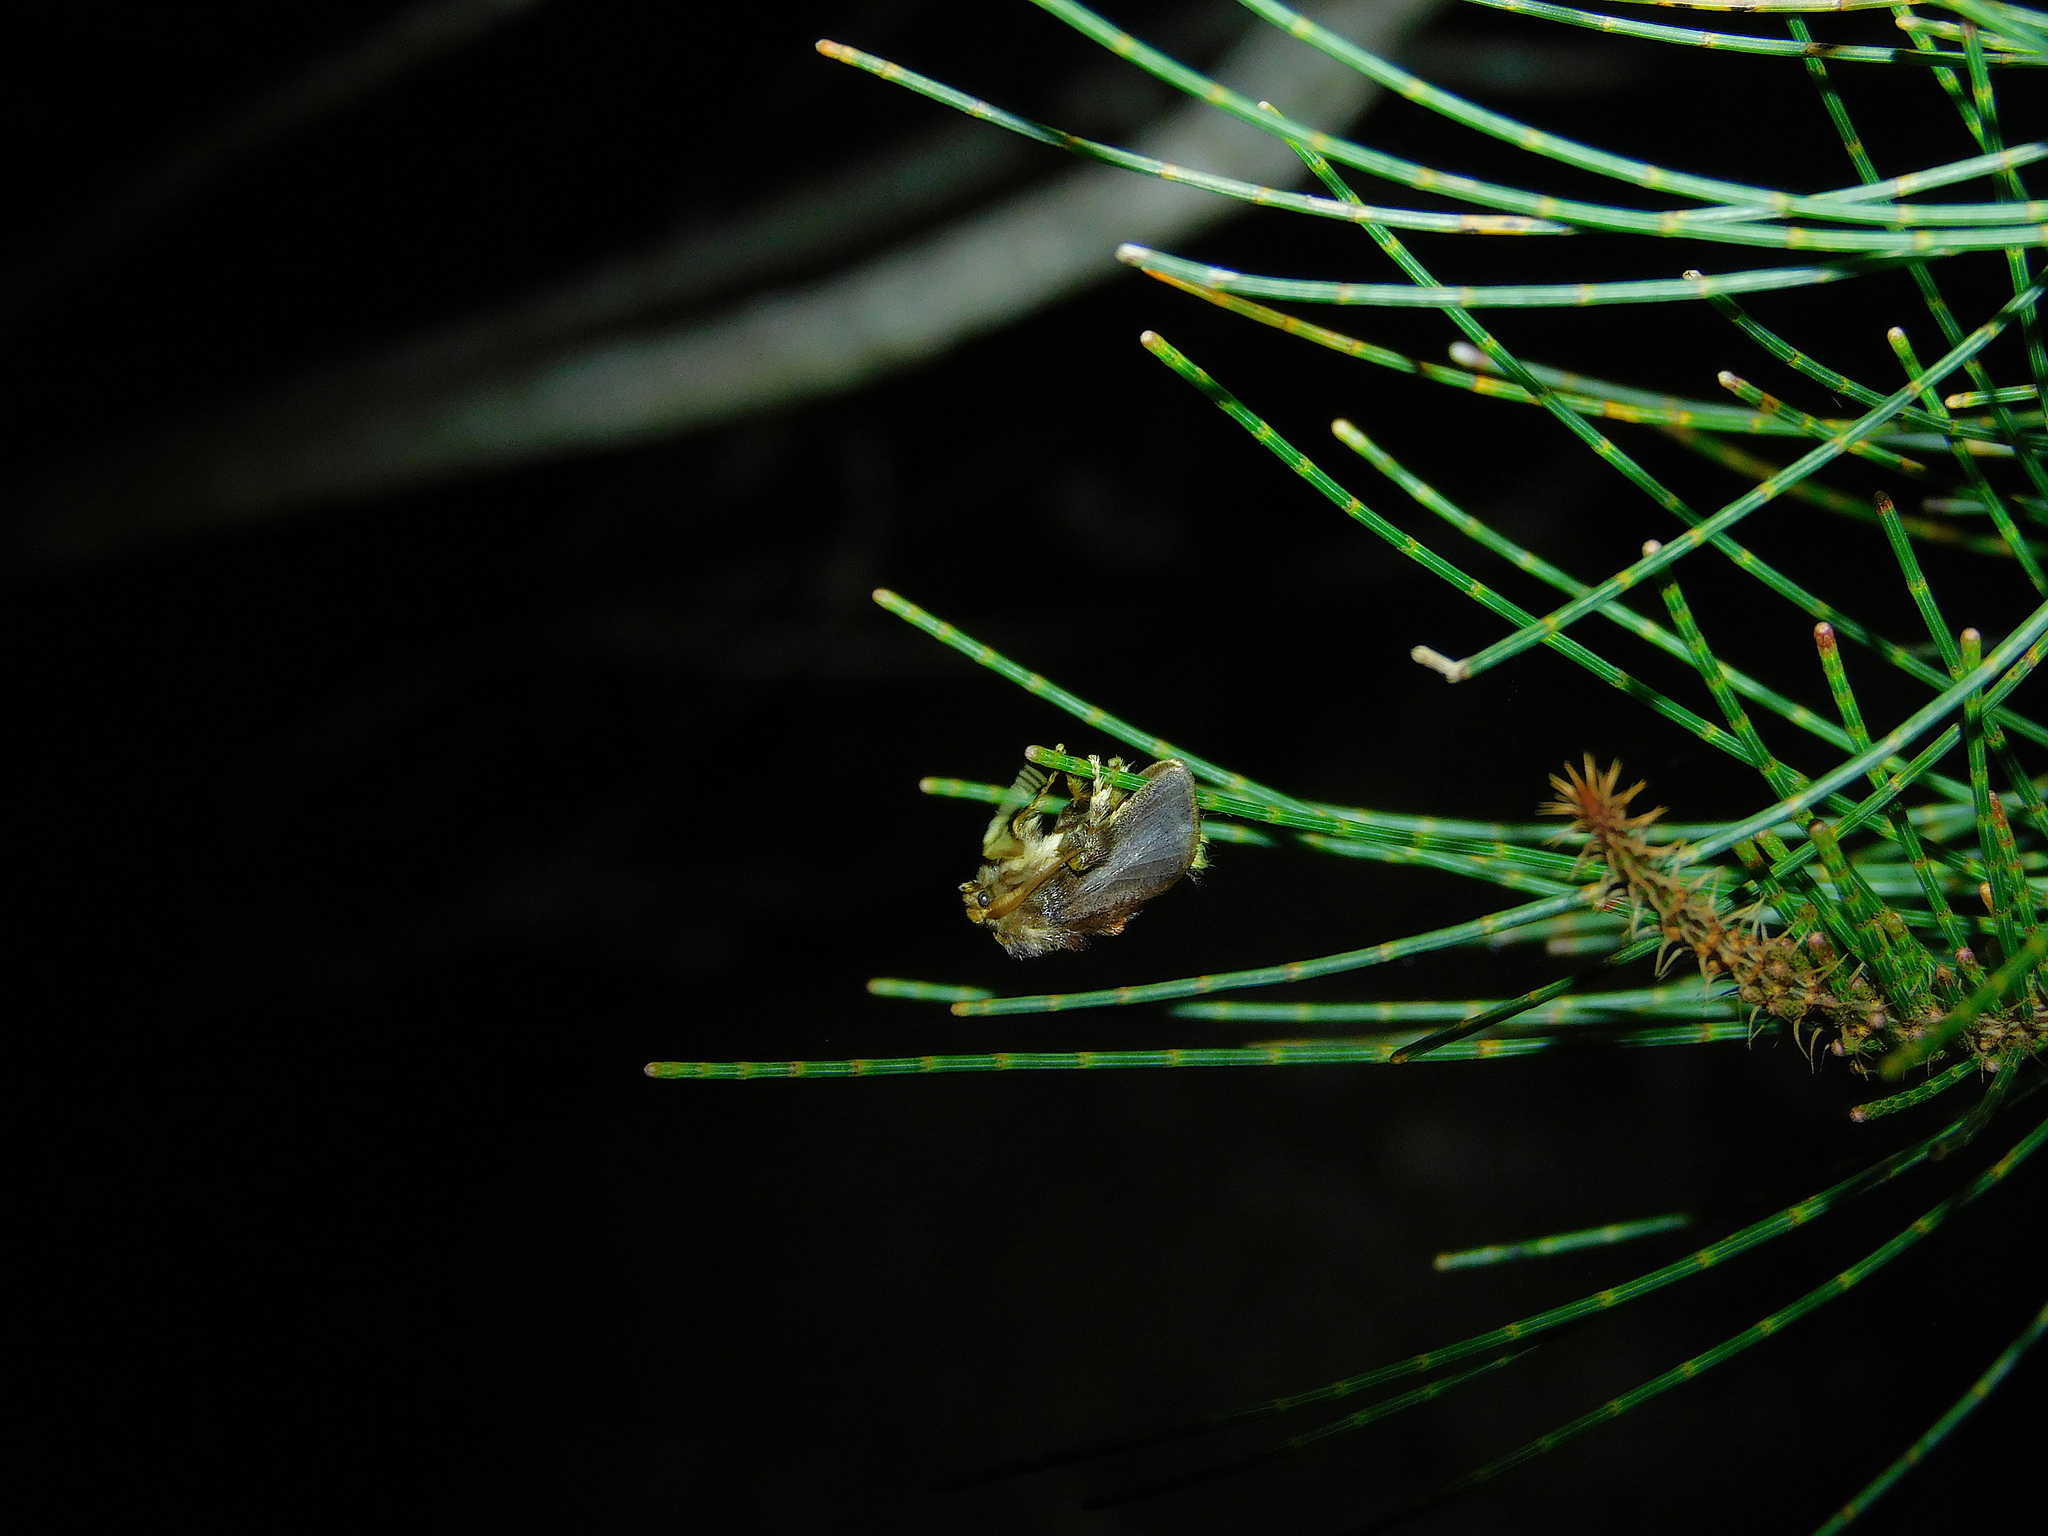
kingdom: Animalia
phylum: Arthropoda
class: Insecta
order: Lepidoptera
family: Limacodidae
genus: Doratifera
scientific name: Doratifera oxleyi
